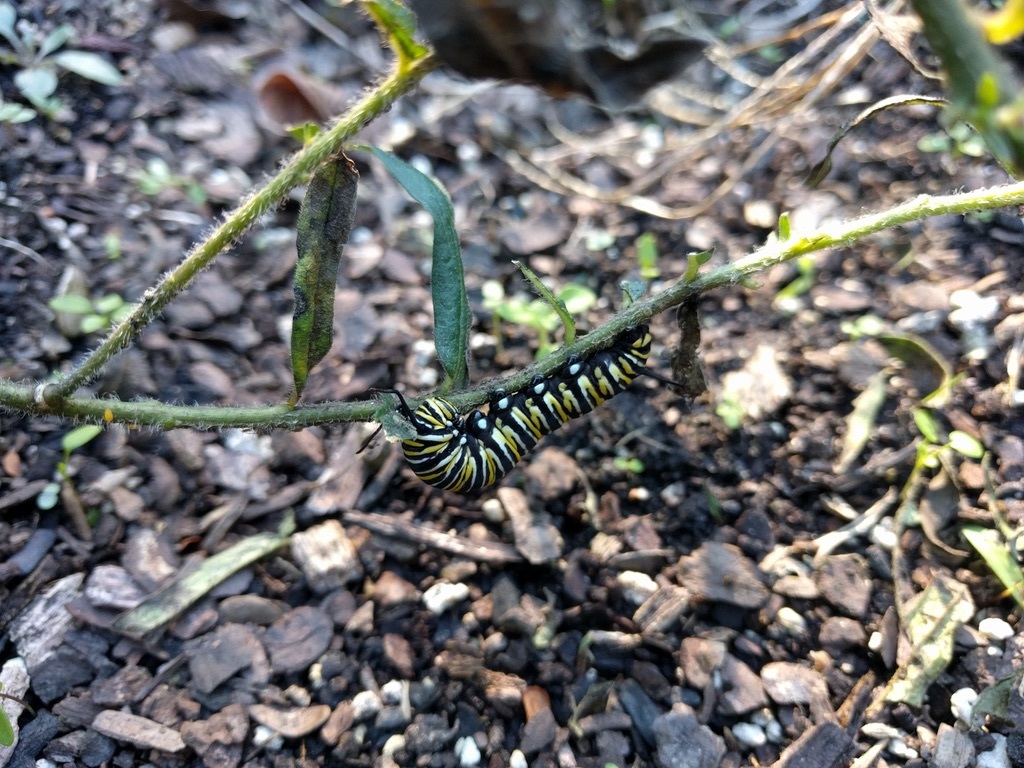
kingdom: Animalia
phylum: Arthropoda
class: Insecta
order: Lepidoptera
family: Nymphalidae
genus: Danaus
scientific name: Danaus plexippus
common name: Monarch
